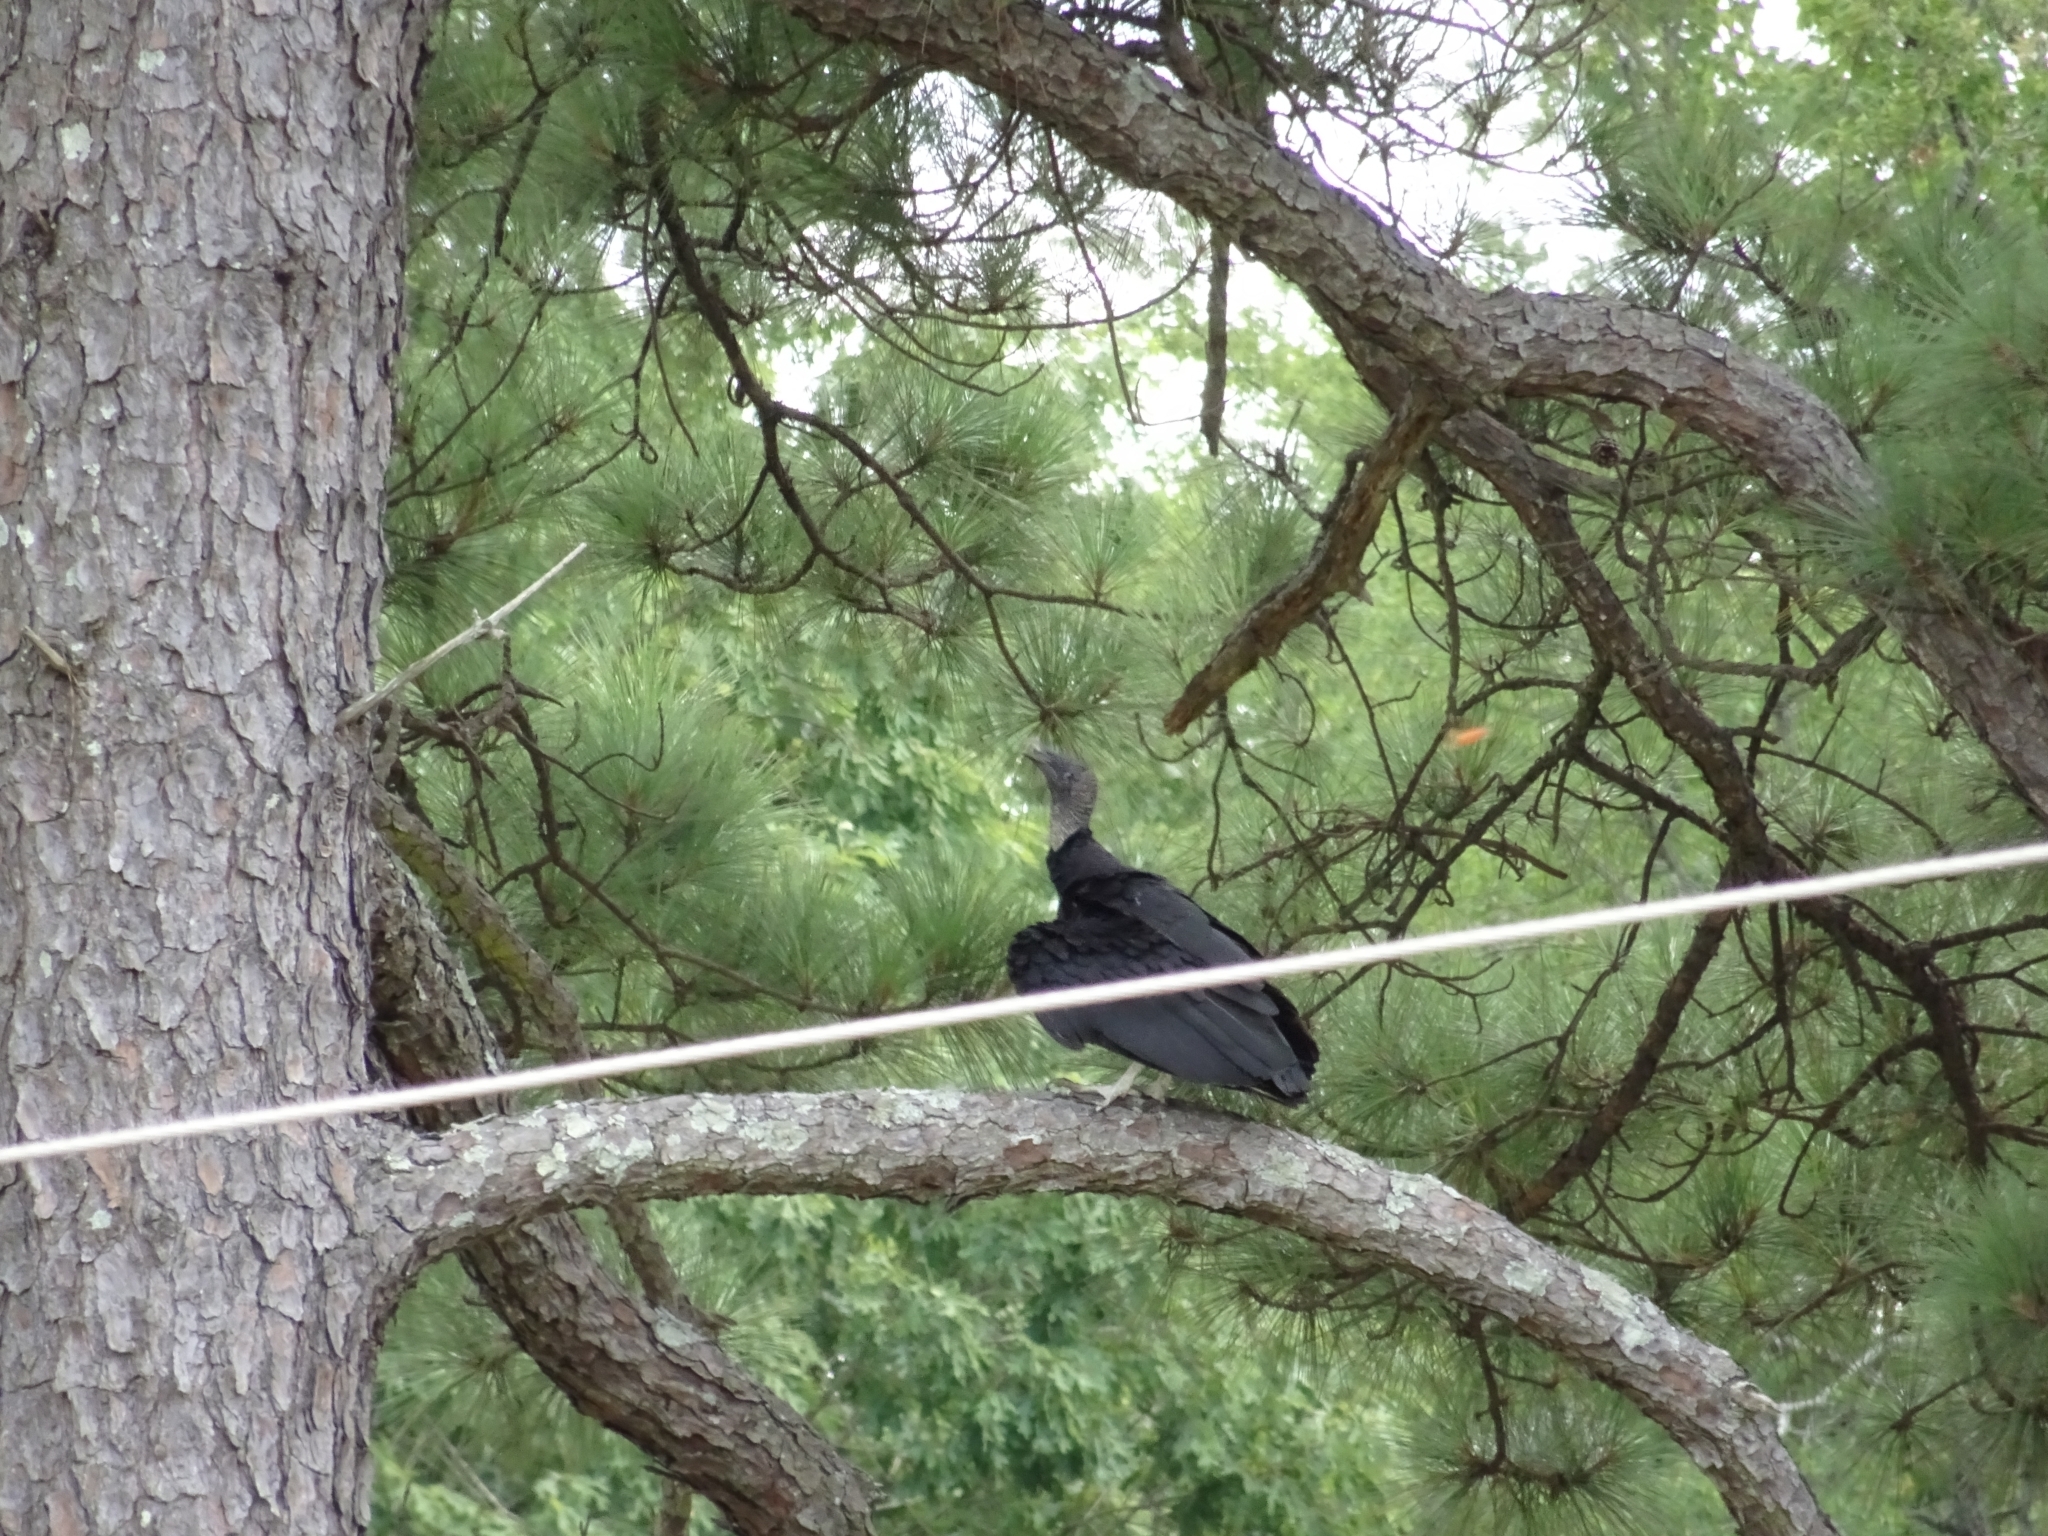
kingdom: Animalia
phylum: Chordata
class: Aves
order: Accipitriformes
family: Cathartidae
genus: Coragyps
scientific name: Coragyps atratus
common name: Black vulture
